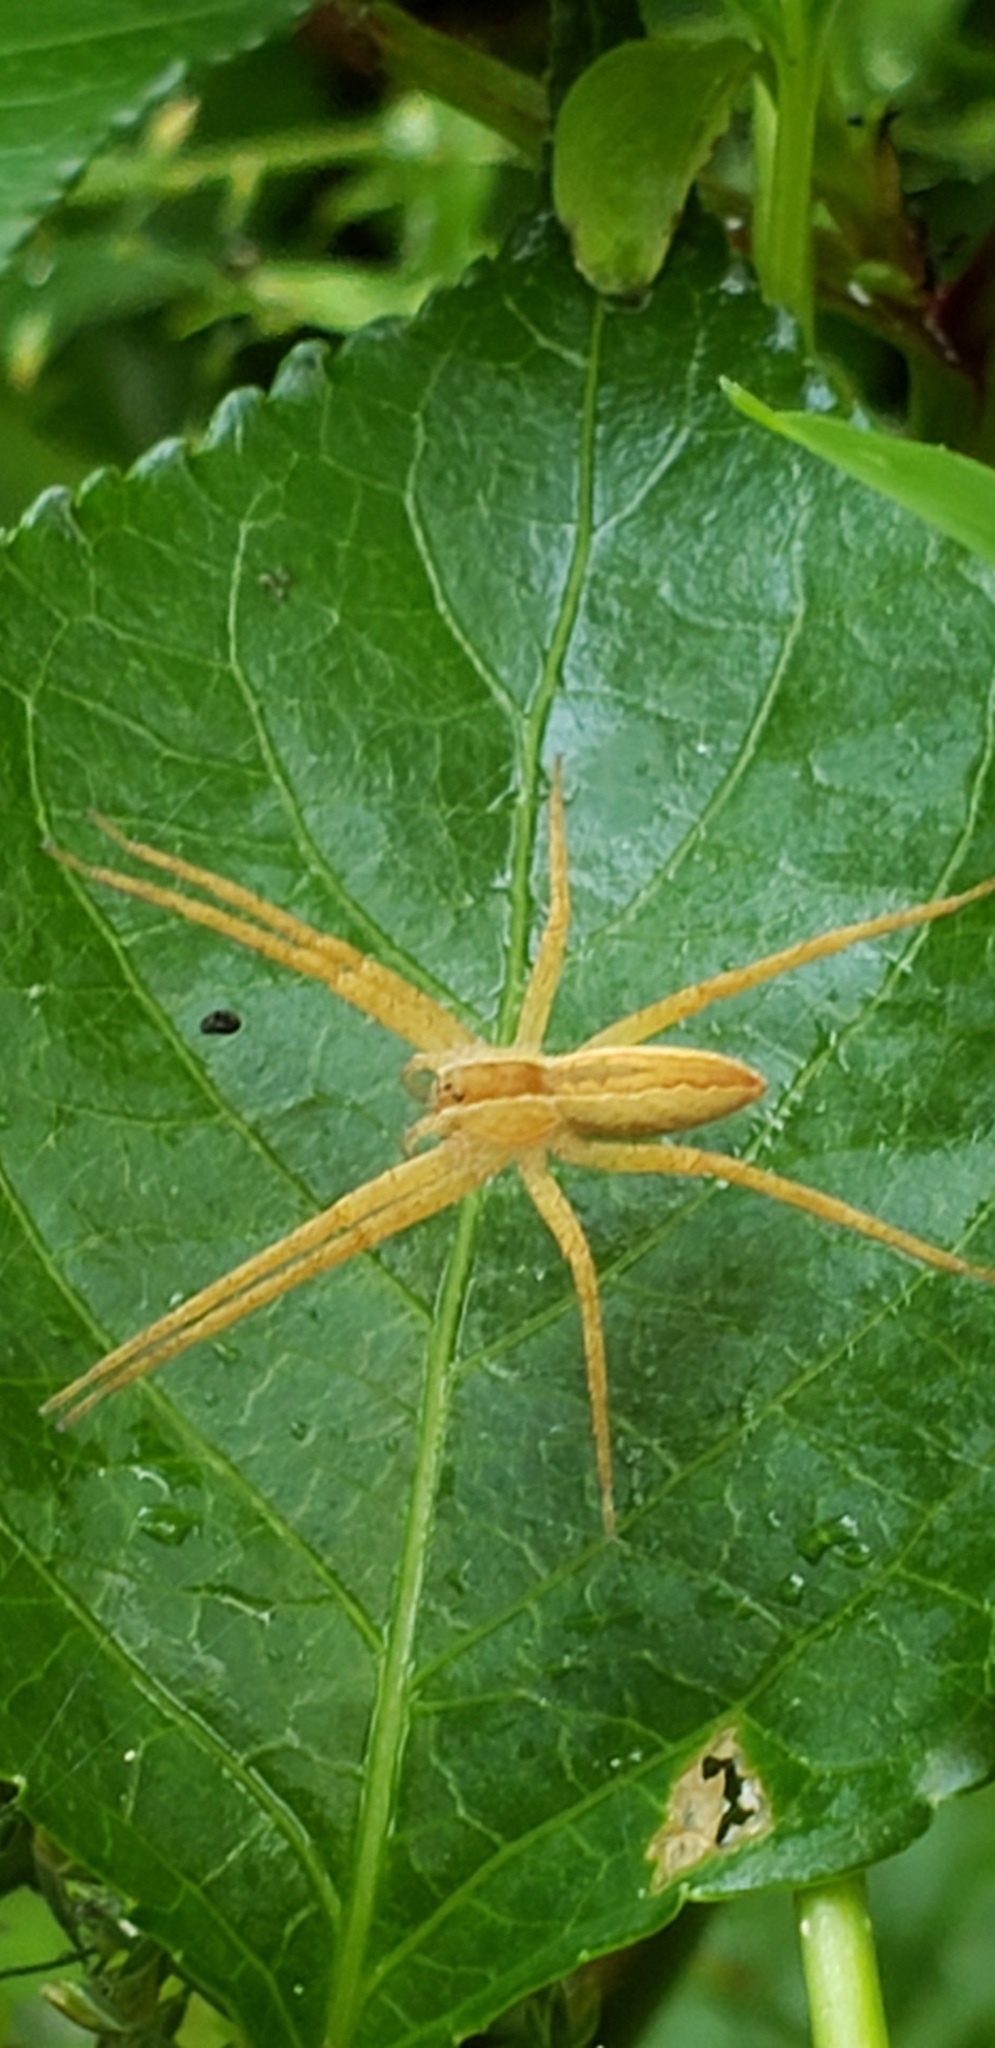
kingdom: Animalia
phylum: Arthropoda
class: Arachnida
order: Araneae
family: Pisauridae
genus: Pisaurina
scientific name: Pisaurina mira
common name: American nursery web spider
